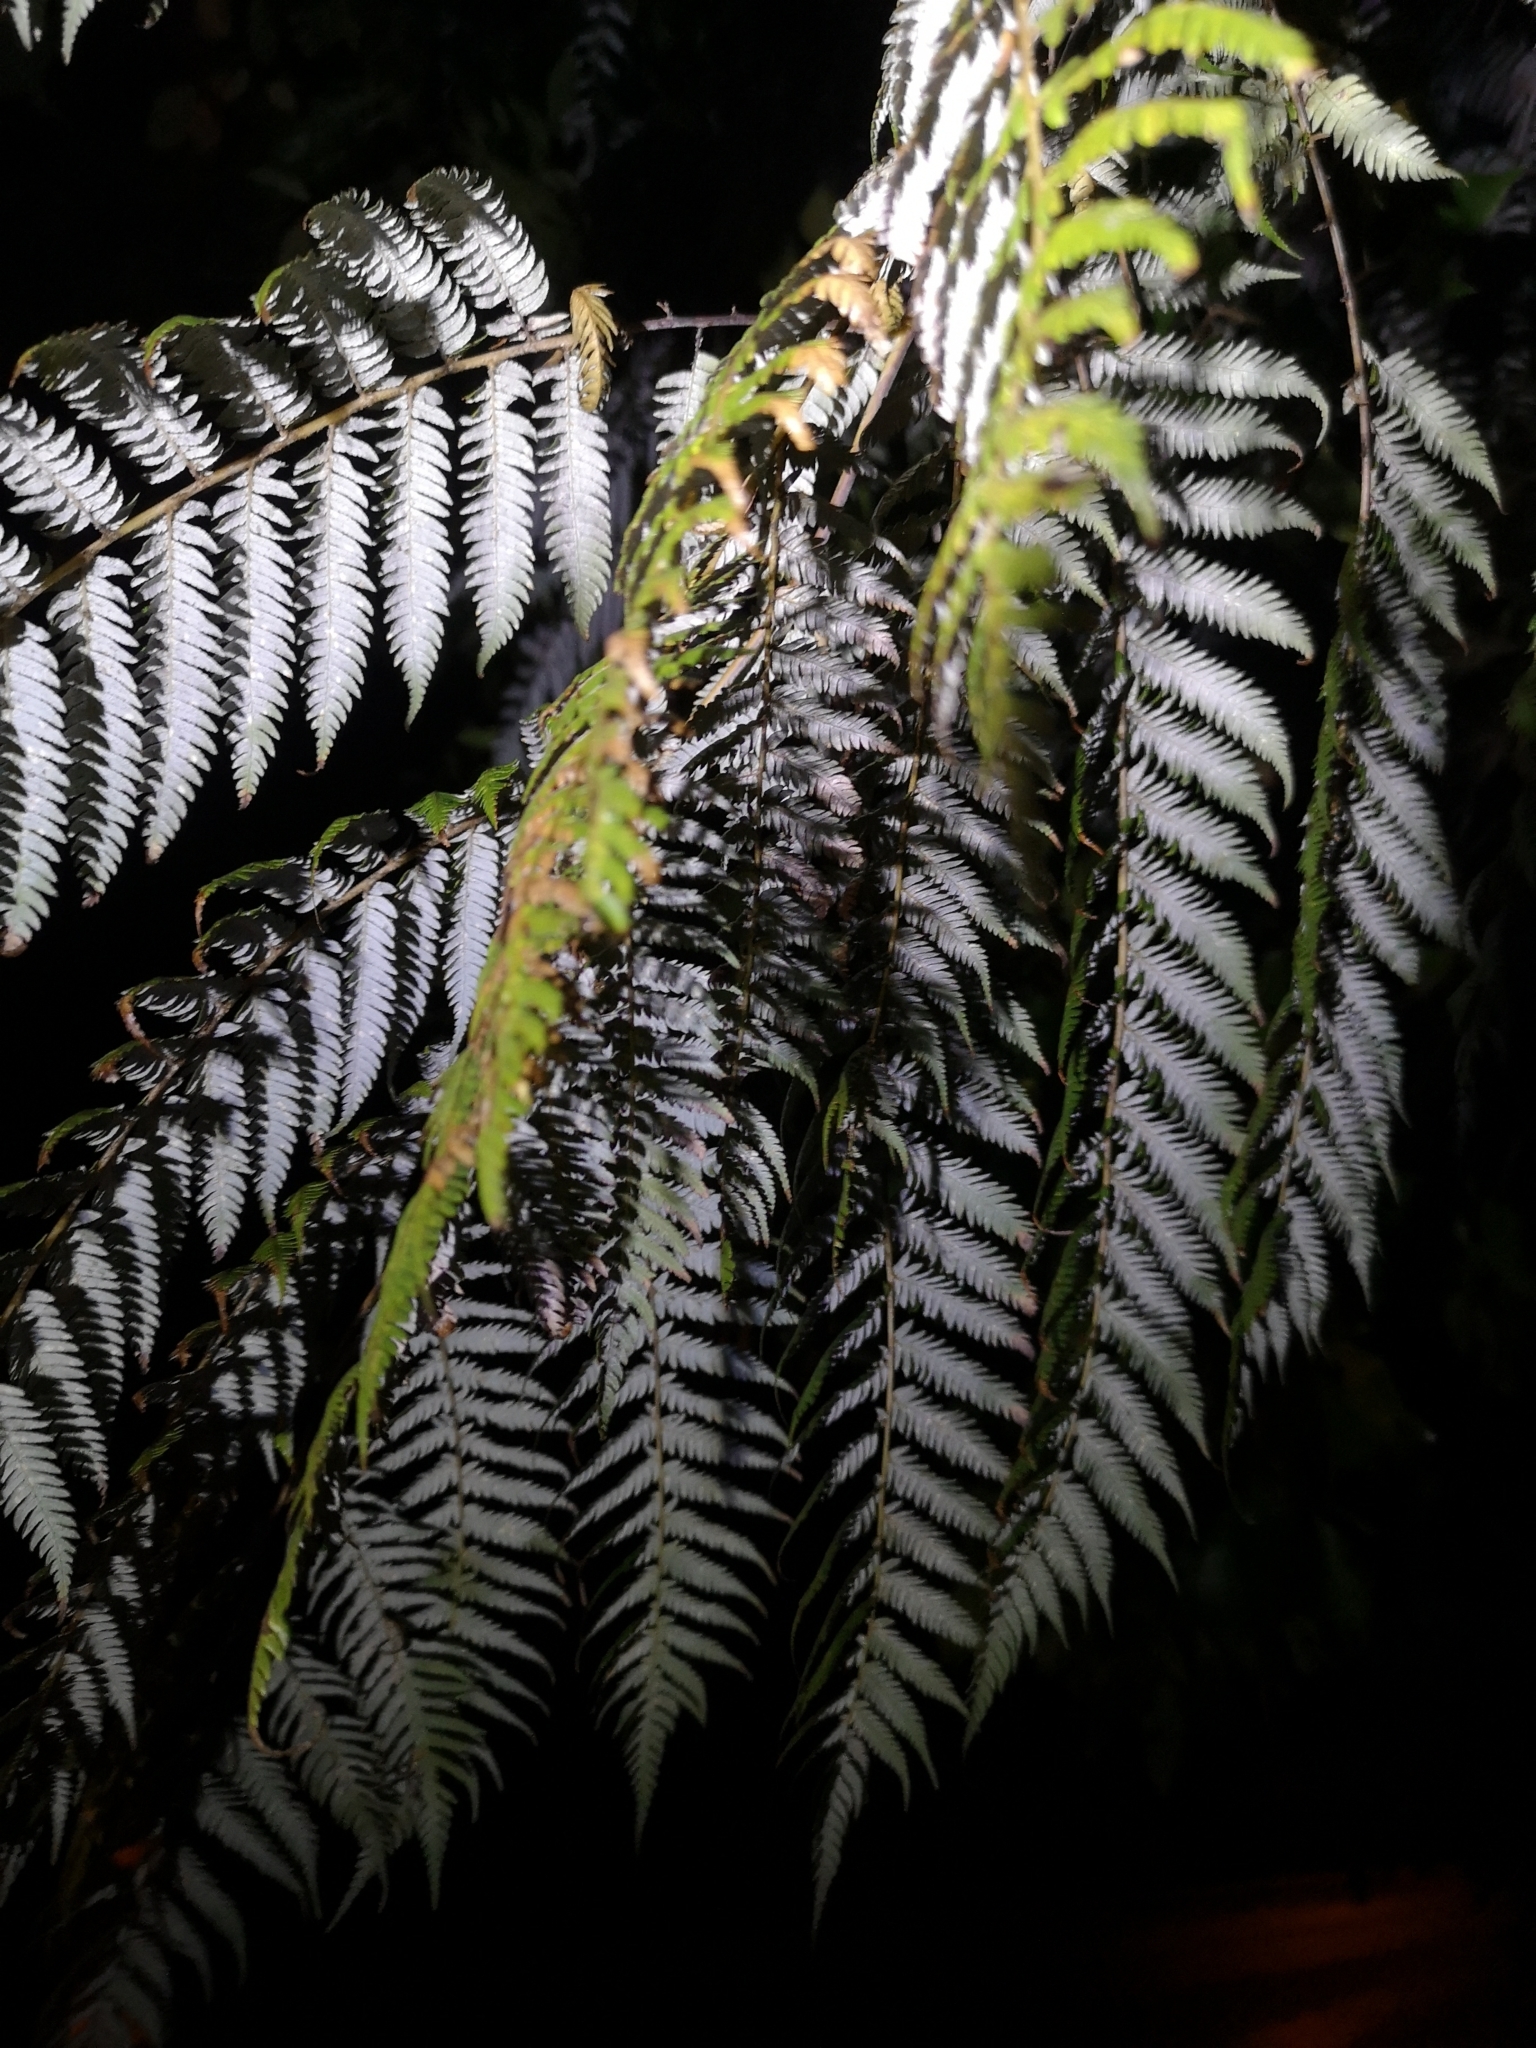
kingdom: Plantae
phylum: Tracheophyta
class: Polypodiopsida
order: Cyatheales
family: Cyatheaceae
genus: Alsophila
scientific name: Alsophila dealbata
